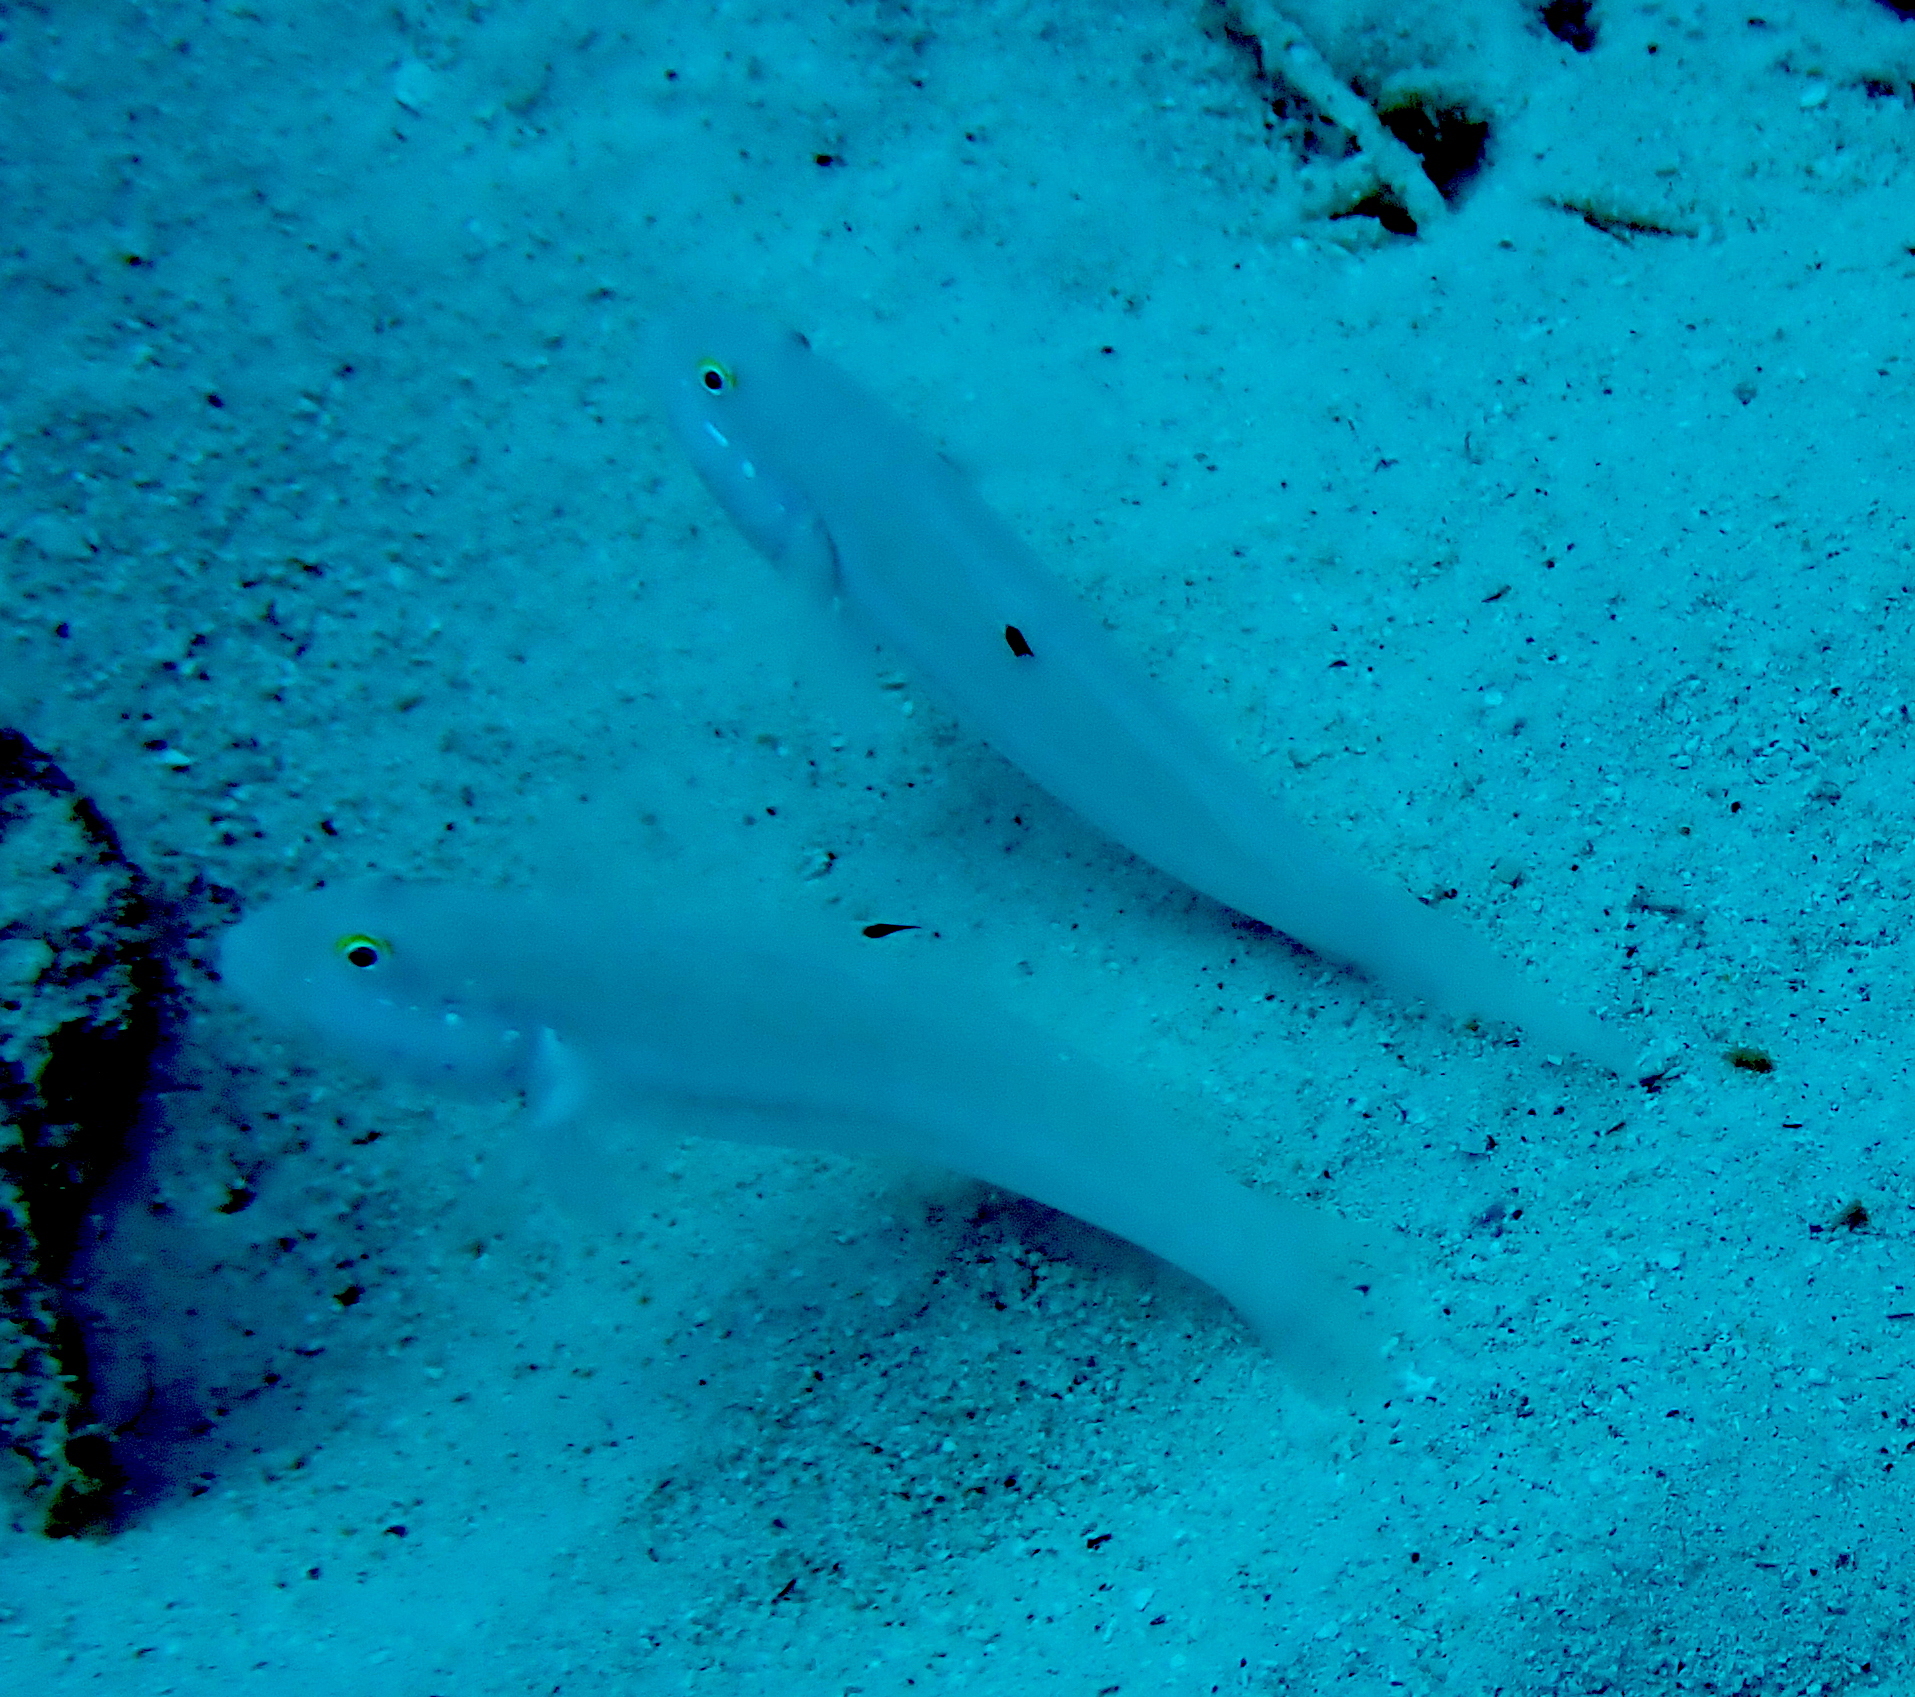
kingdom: Animalia
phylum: Chordata
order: Perciformes
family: Gobiidae
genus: Valenciennea
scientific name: Valenciennea sexguttata
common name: Sixspot goby
